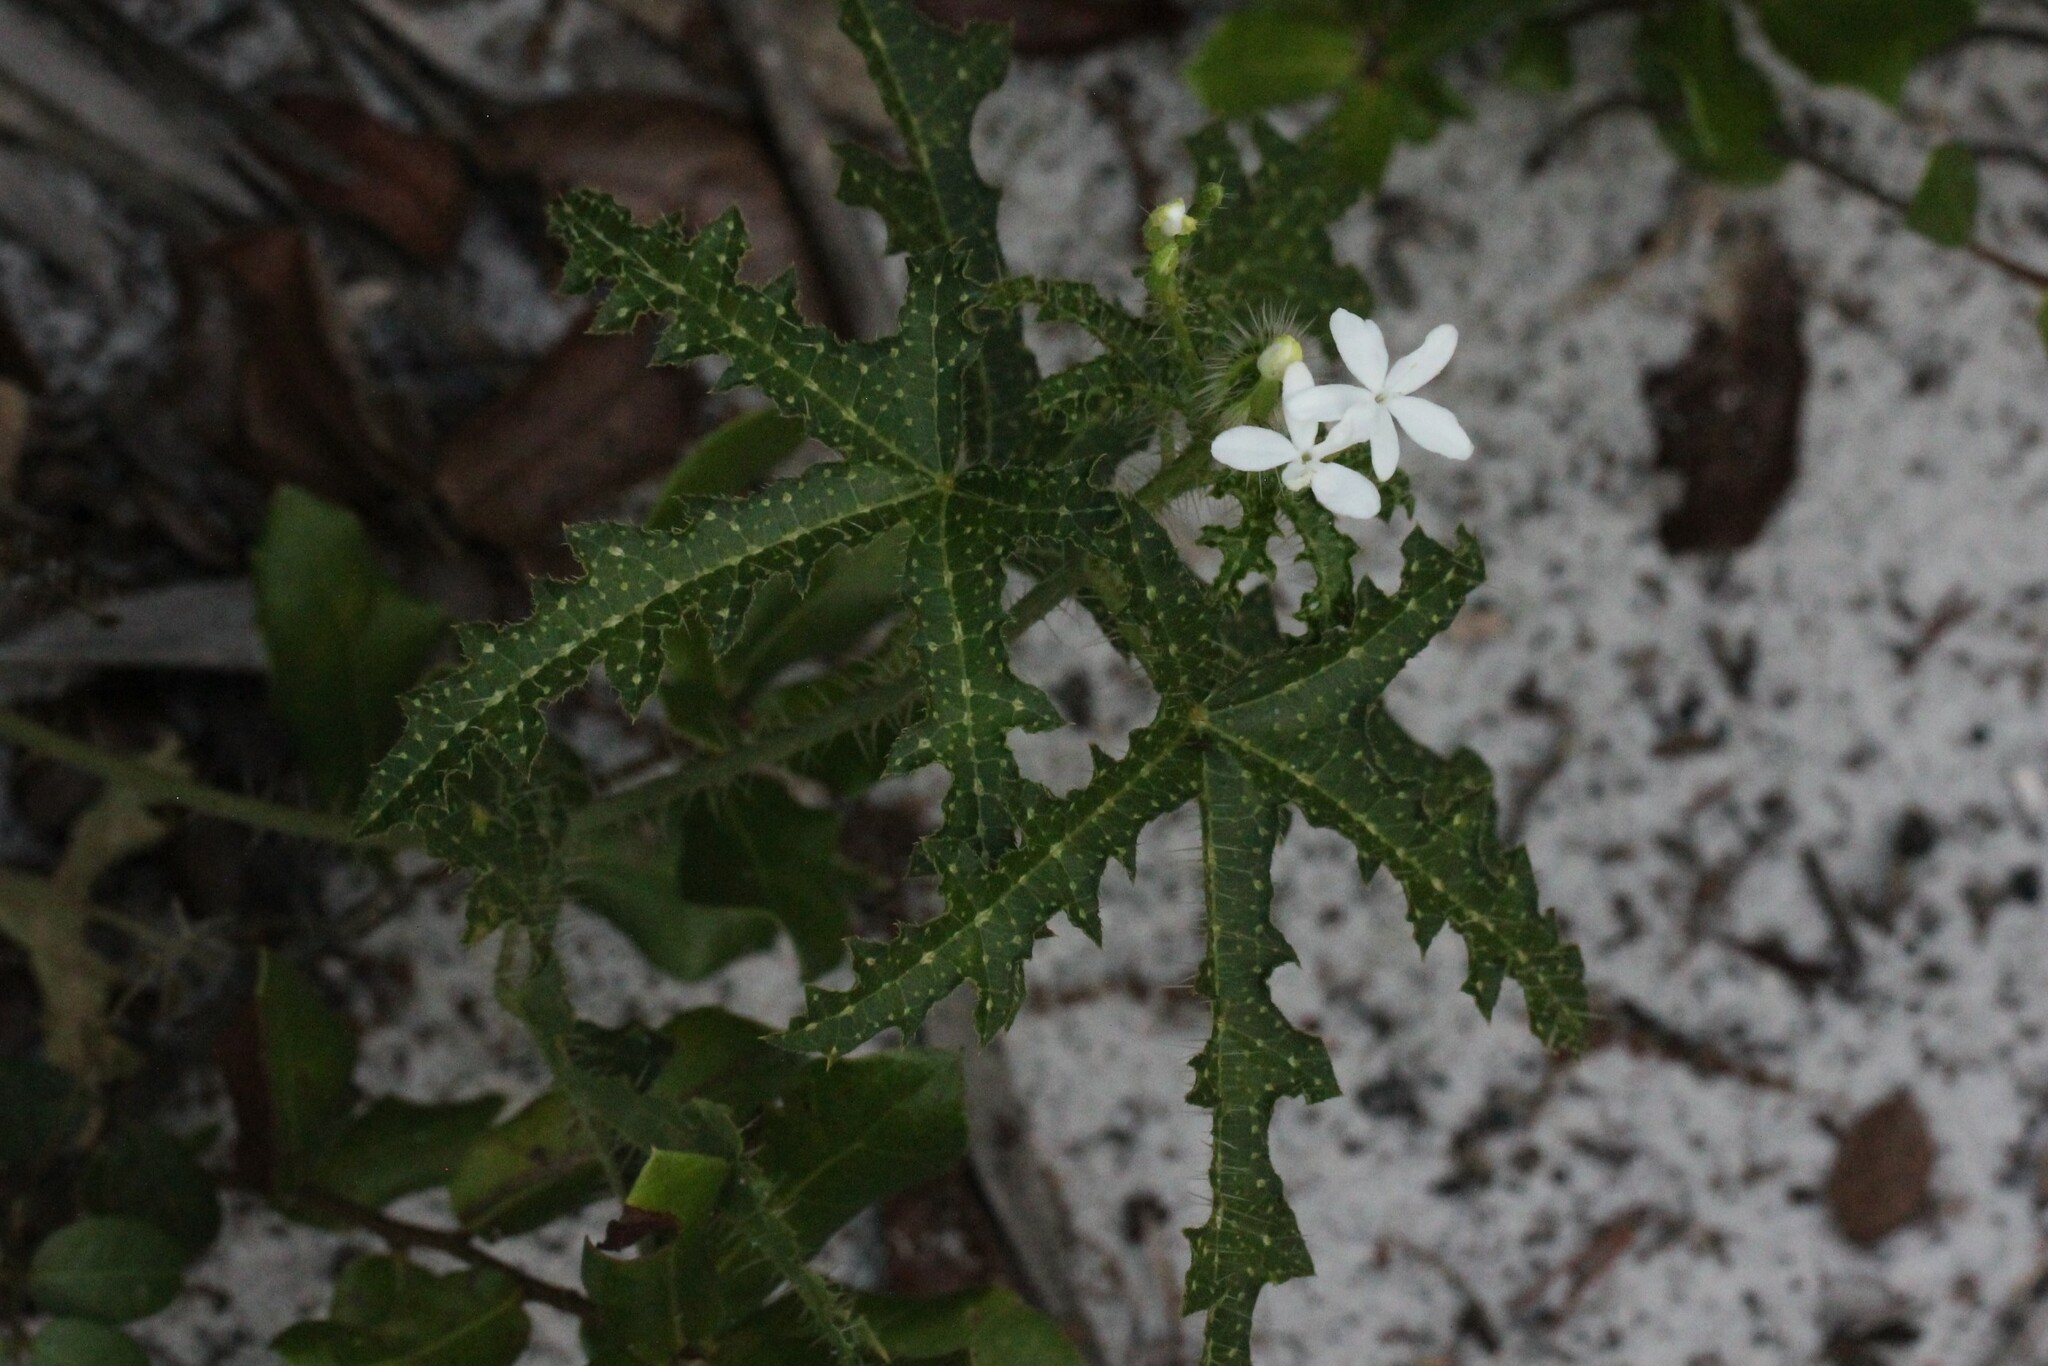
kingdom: Plantae
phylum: Tracheophyta
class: Magnoliopsida
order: Malpighiales
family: Euphorbiaceae
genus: Cnidoscolus
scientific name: Cnidoscolus stimulosus
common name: Bull-nettle
